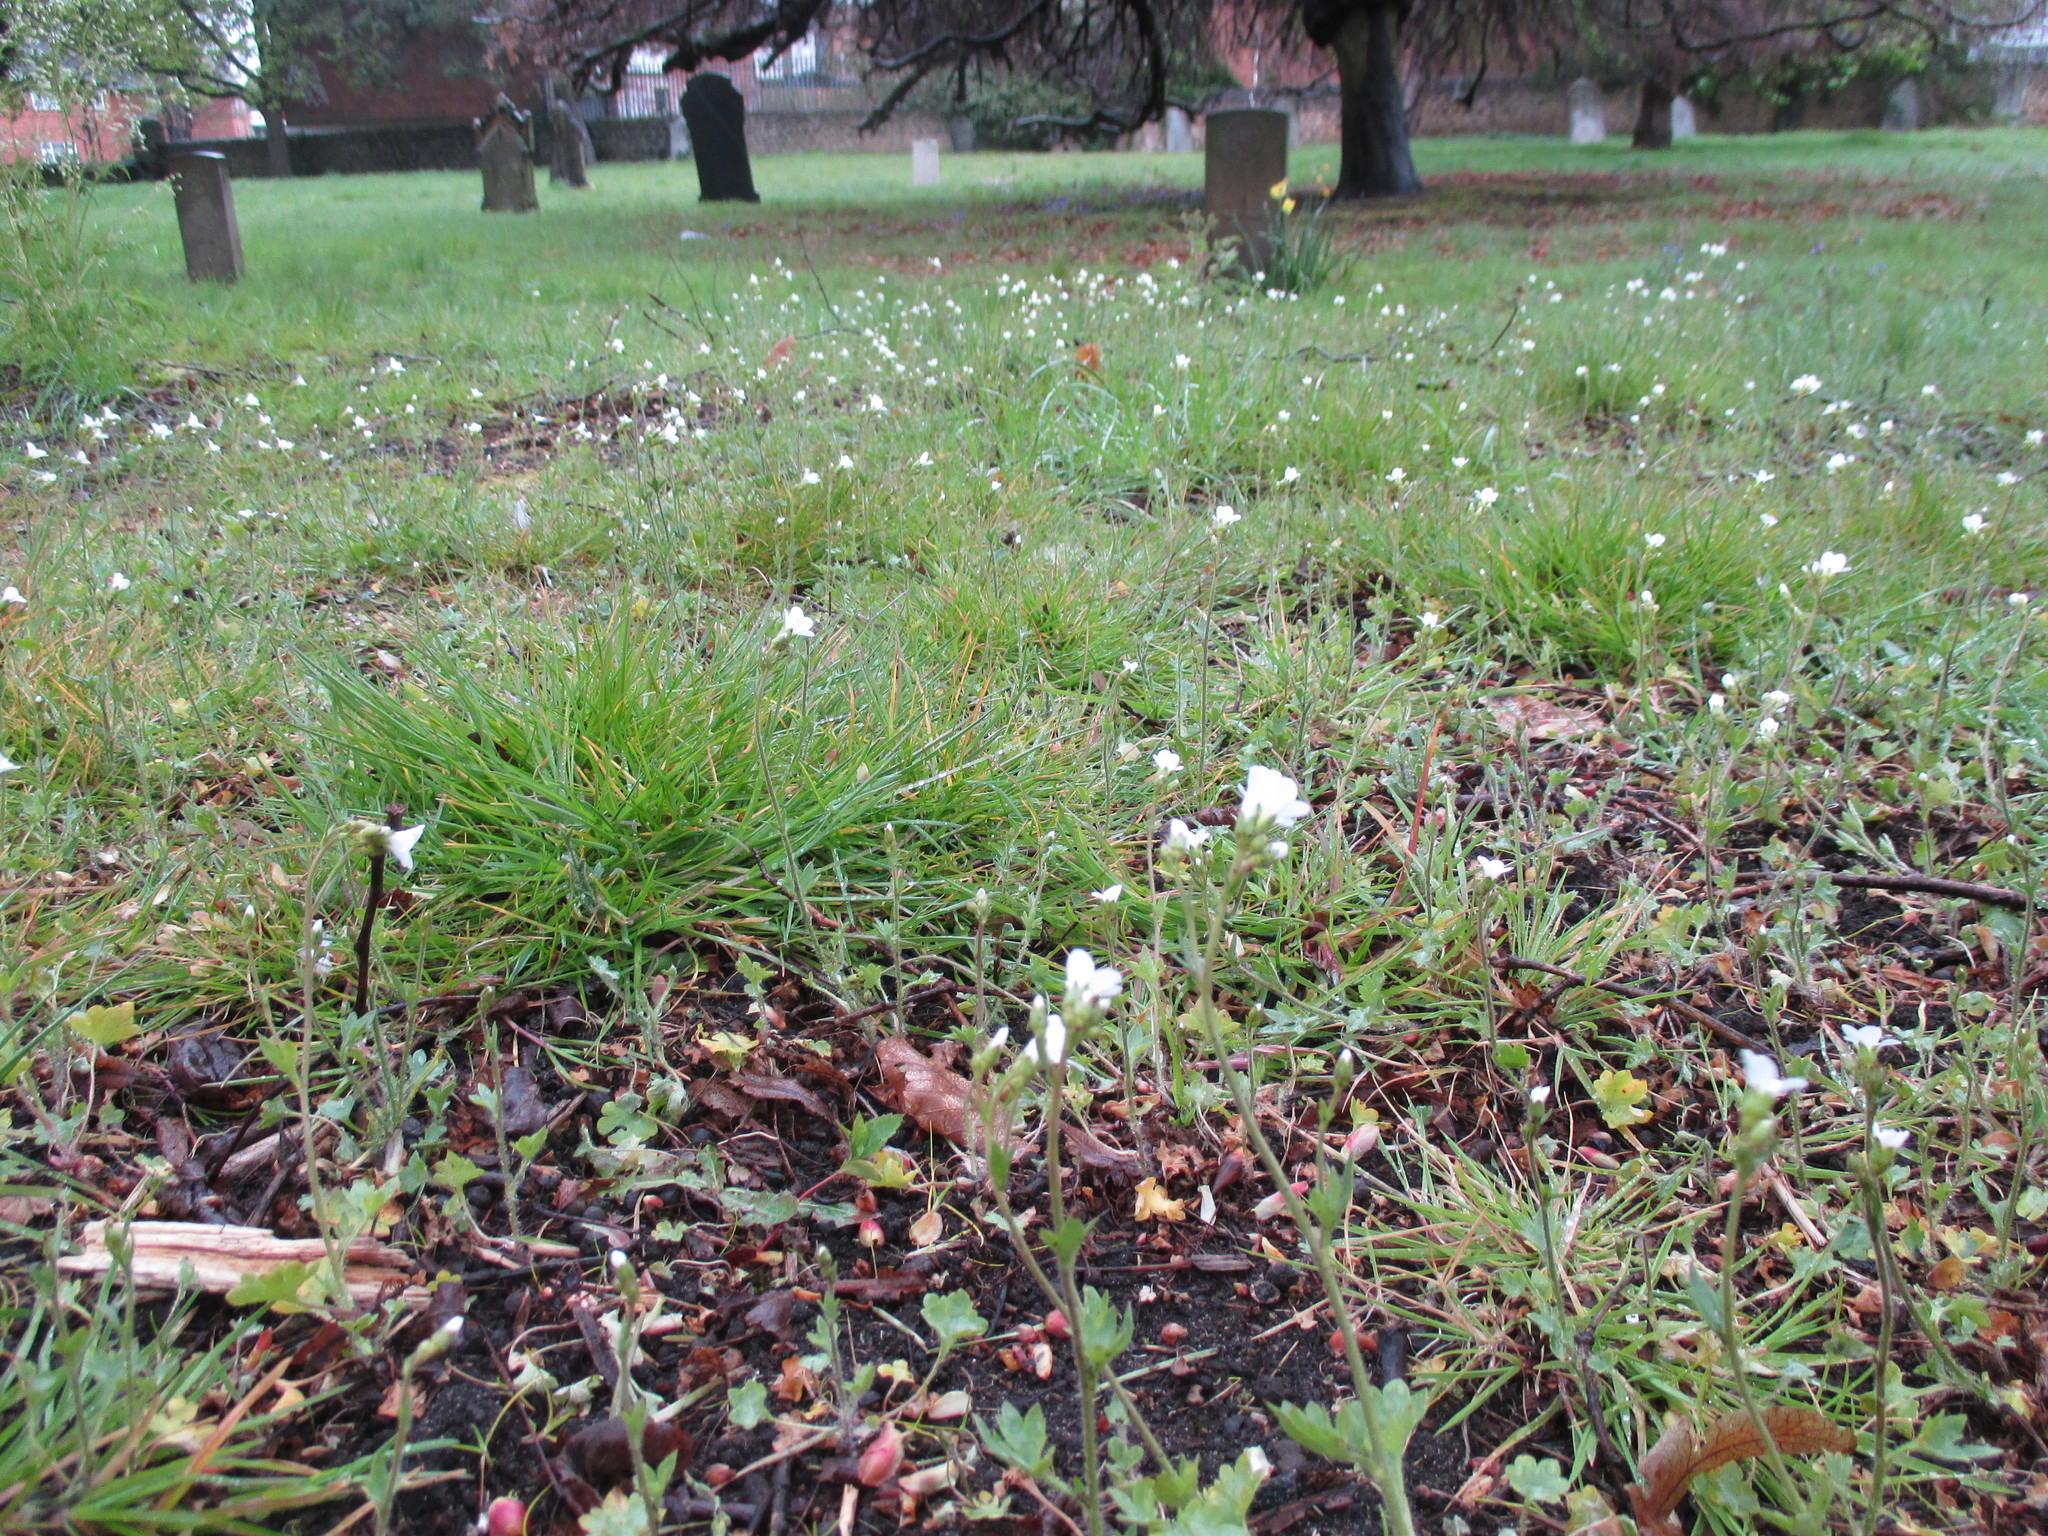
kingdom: Plantae
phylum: Tracheophyta
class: Magnoliopsida
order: Saxifragales
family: Saxifragaceae
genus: Saxifraga
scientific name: Saxifraga granulata
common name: Meadow saxifrage
